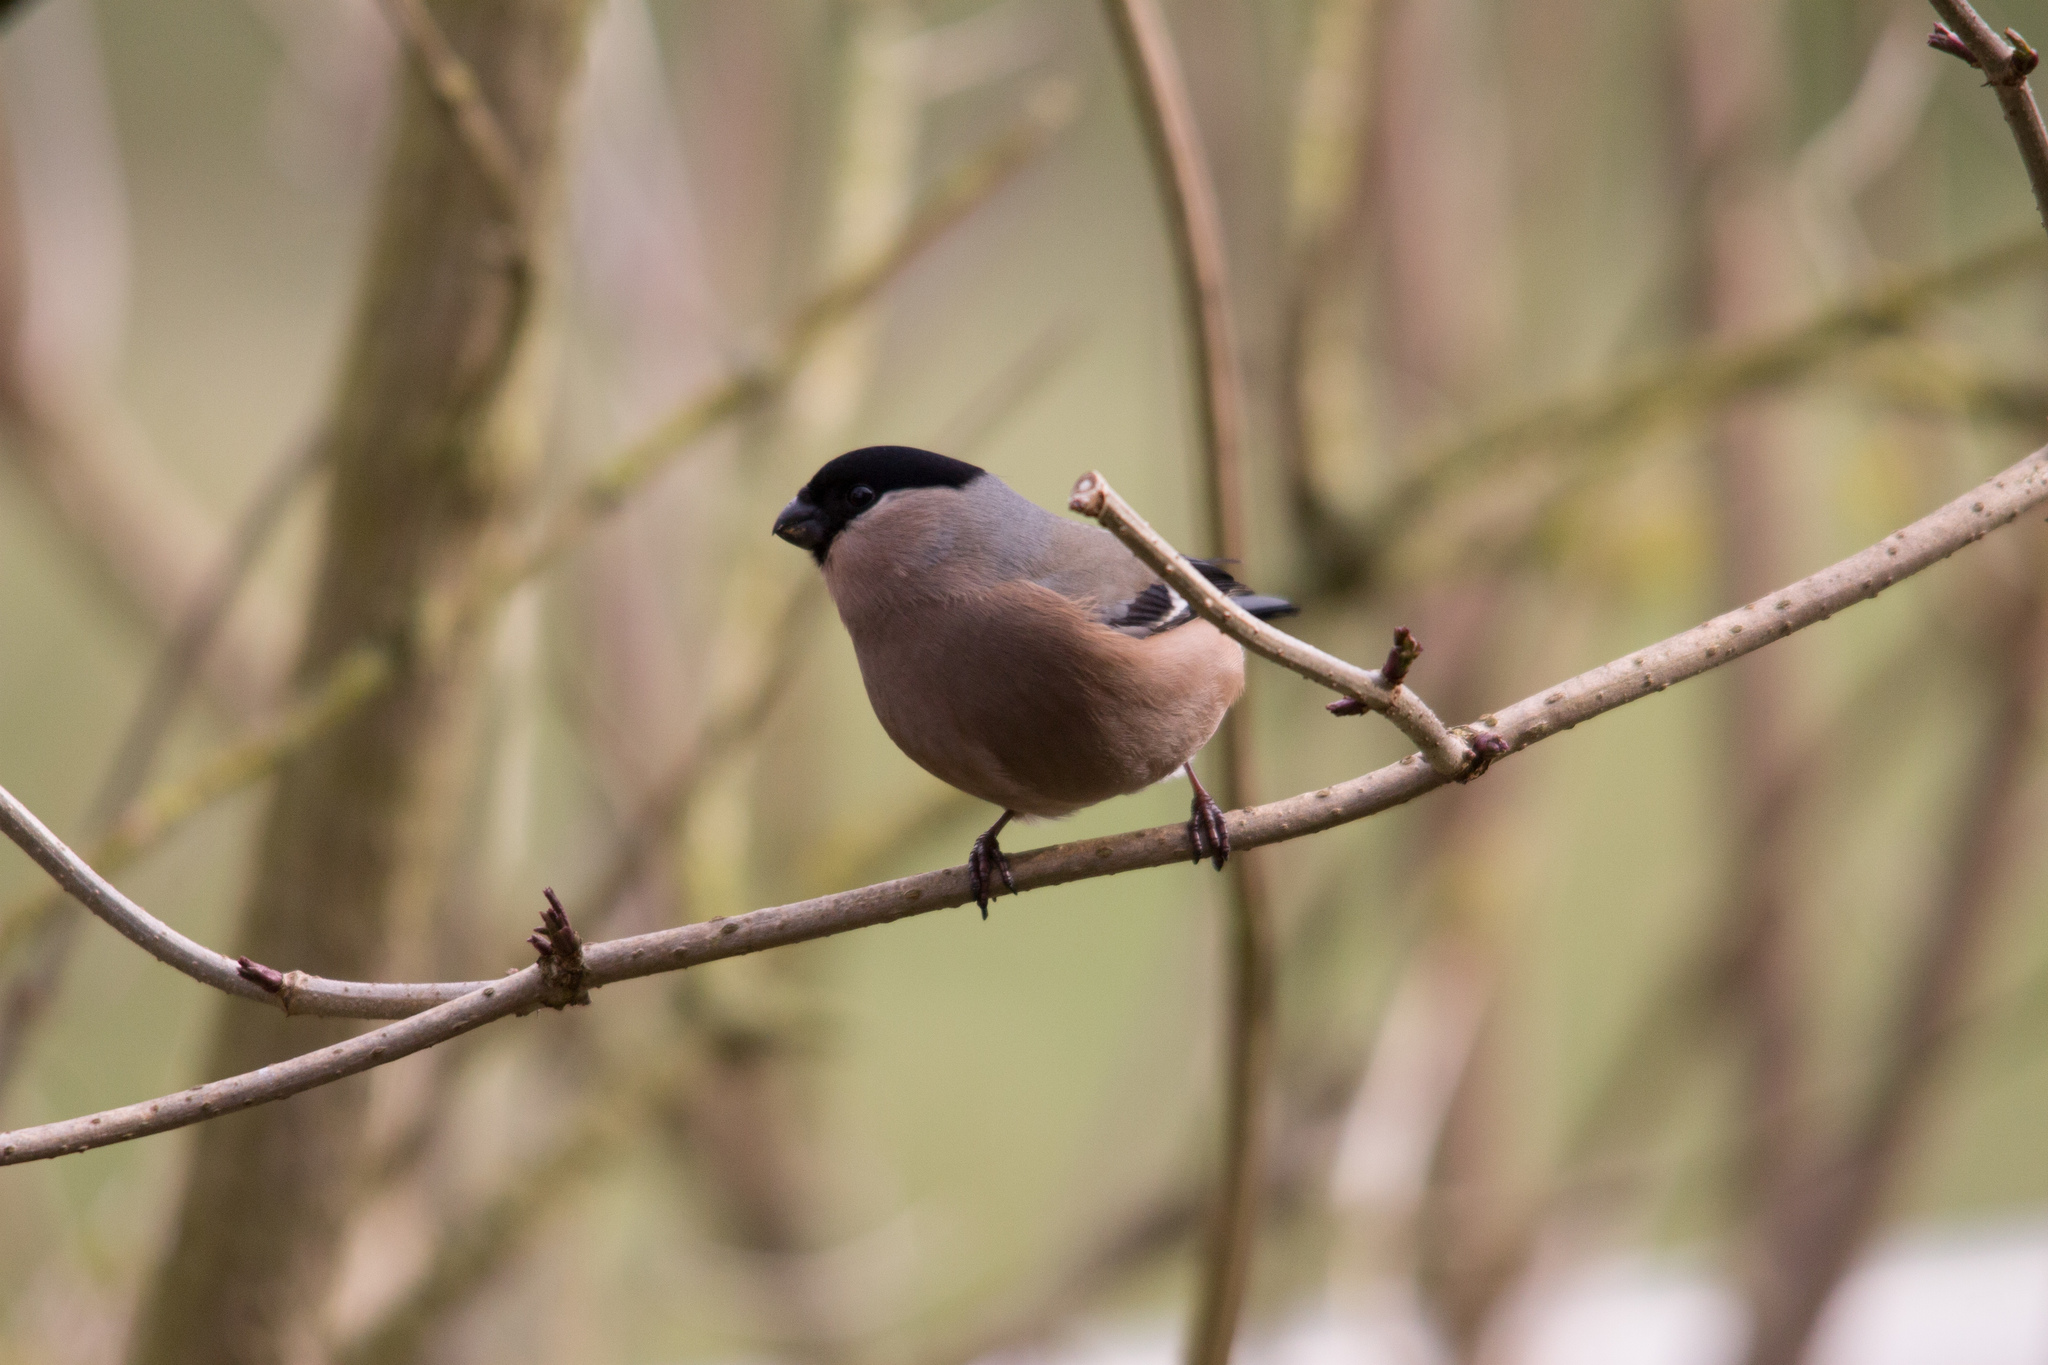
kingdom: Animalia
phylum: Chordata
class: Aves
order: Passeriformes
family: Fringillidae
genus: Pyrrhula
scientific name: Pyrrhula pyrrhula
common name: Eurasian bullfinch
